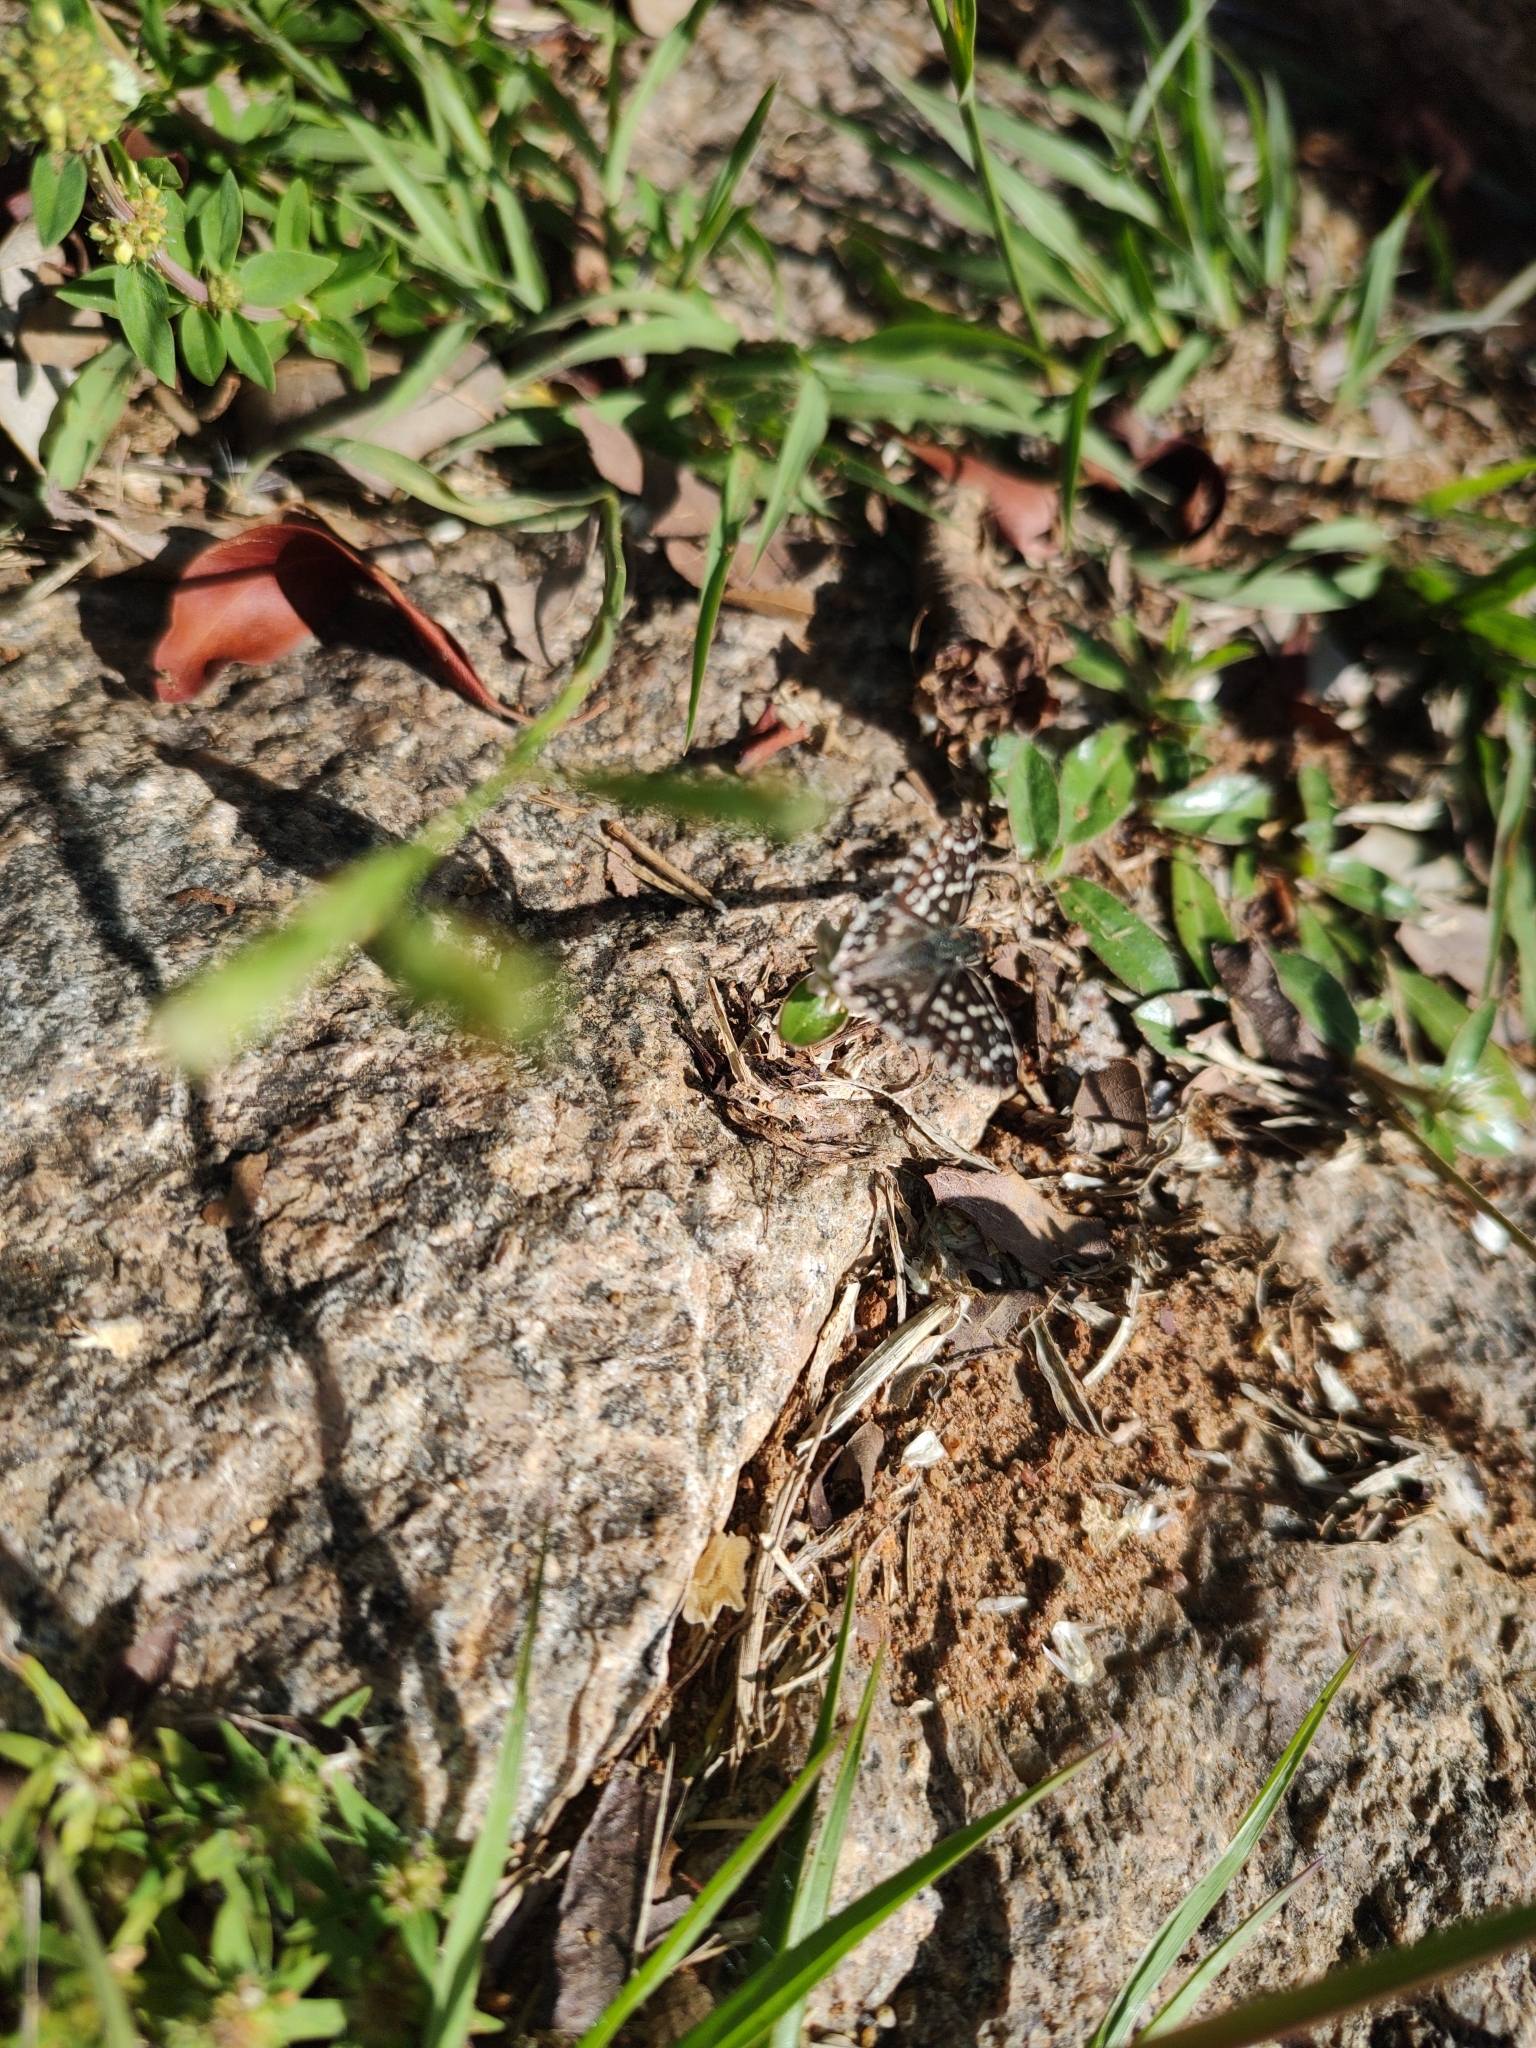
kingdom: Animalia
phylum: Arthropoda
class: Insecta
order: Lepidoptera
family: Hesperiidae
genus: Pyrgus
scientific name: Pyrgus oileus
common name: Tropical checkered-skipper
